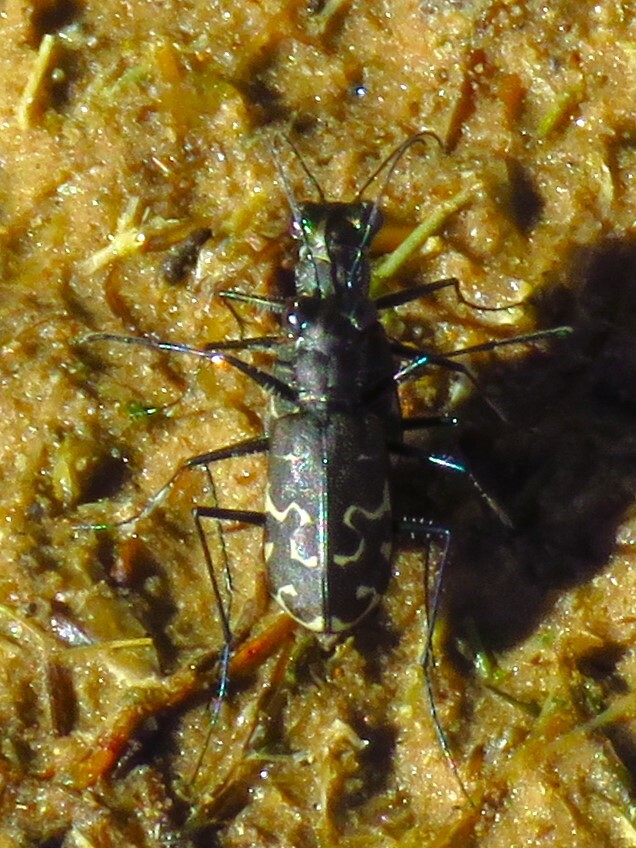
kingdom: Animalia
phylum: Arthropoda
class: Insecta
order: Coleoptera
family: Carabidae
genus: Cicindela
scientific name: Cicindela trifasciata
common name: Mudflat tiger beetle
